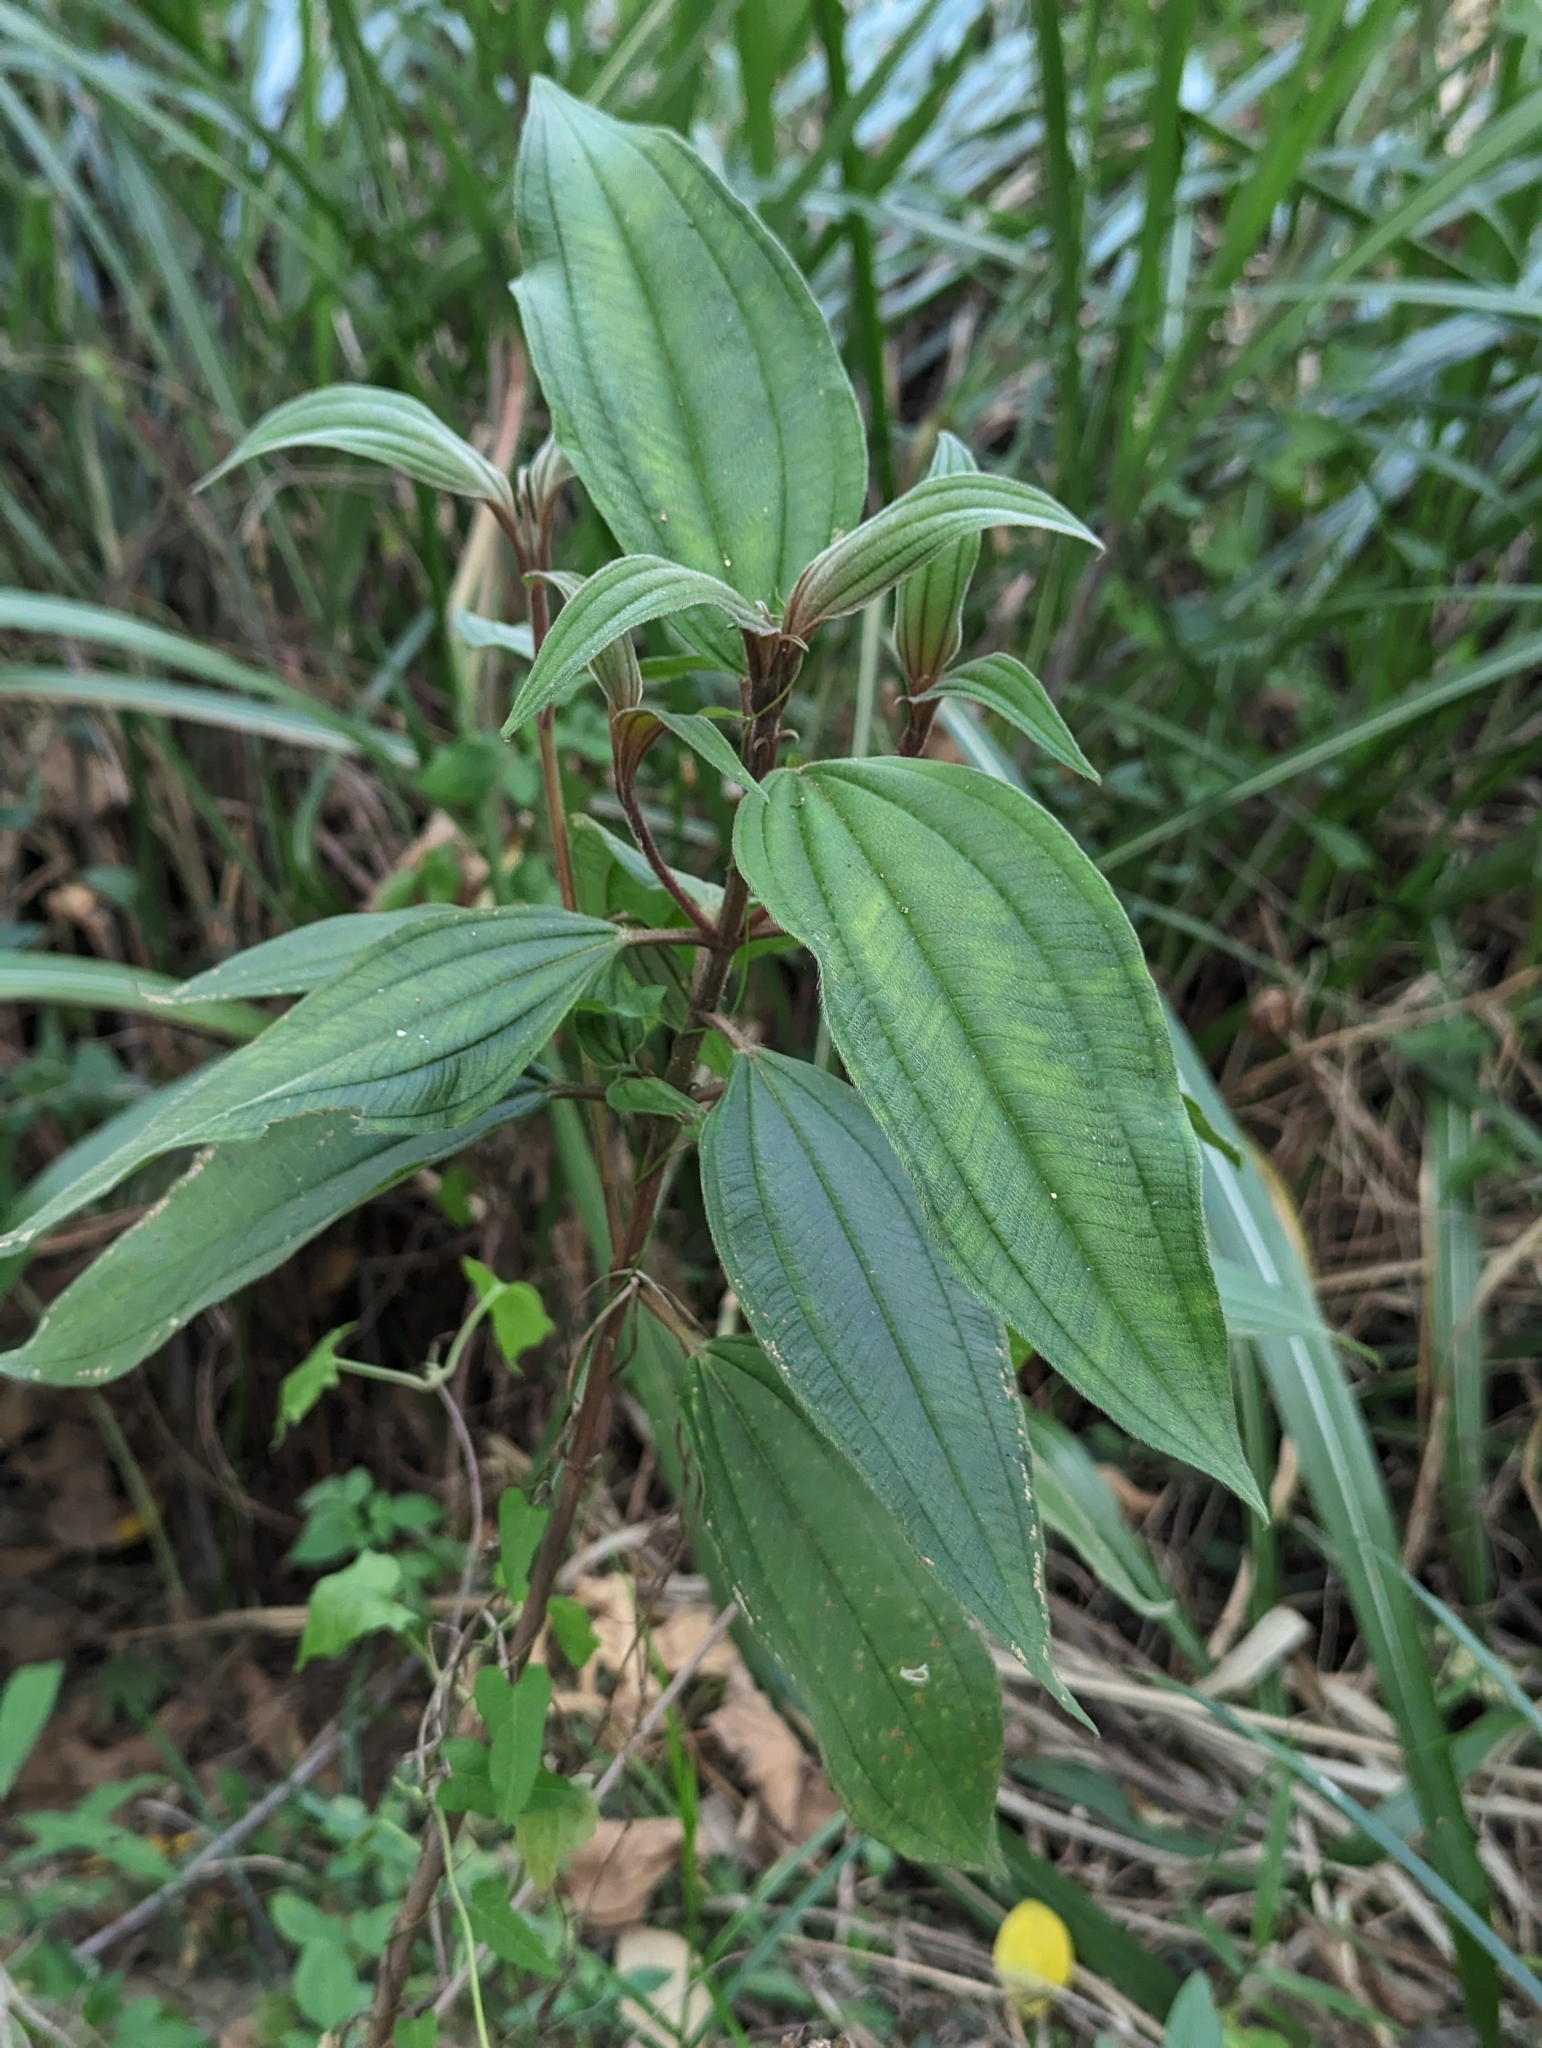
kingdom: Plantae
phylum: Tracheophyta
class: Magnoliopsida
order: Myrtales
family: Melastomataceae
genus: Melastoma
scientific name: Melastoma malabathricum
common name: Indian-rhododendron
